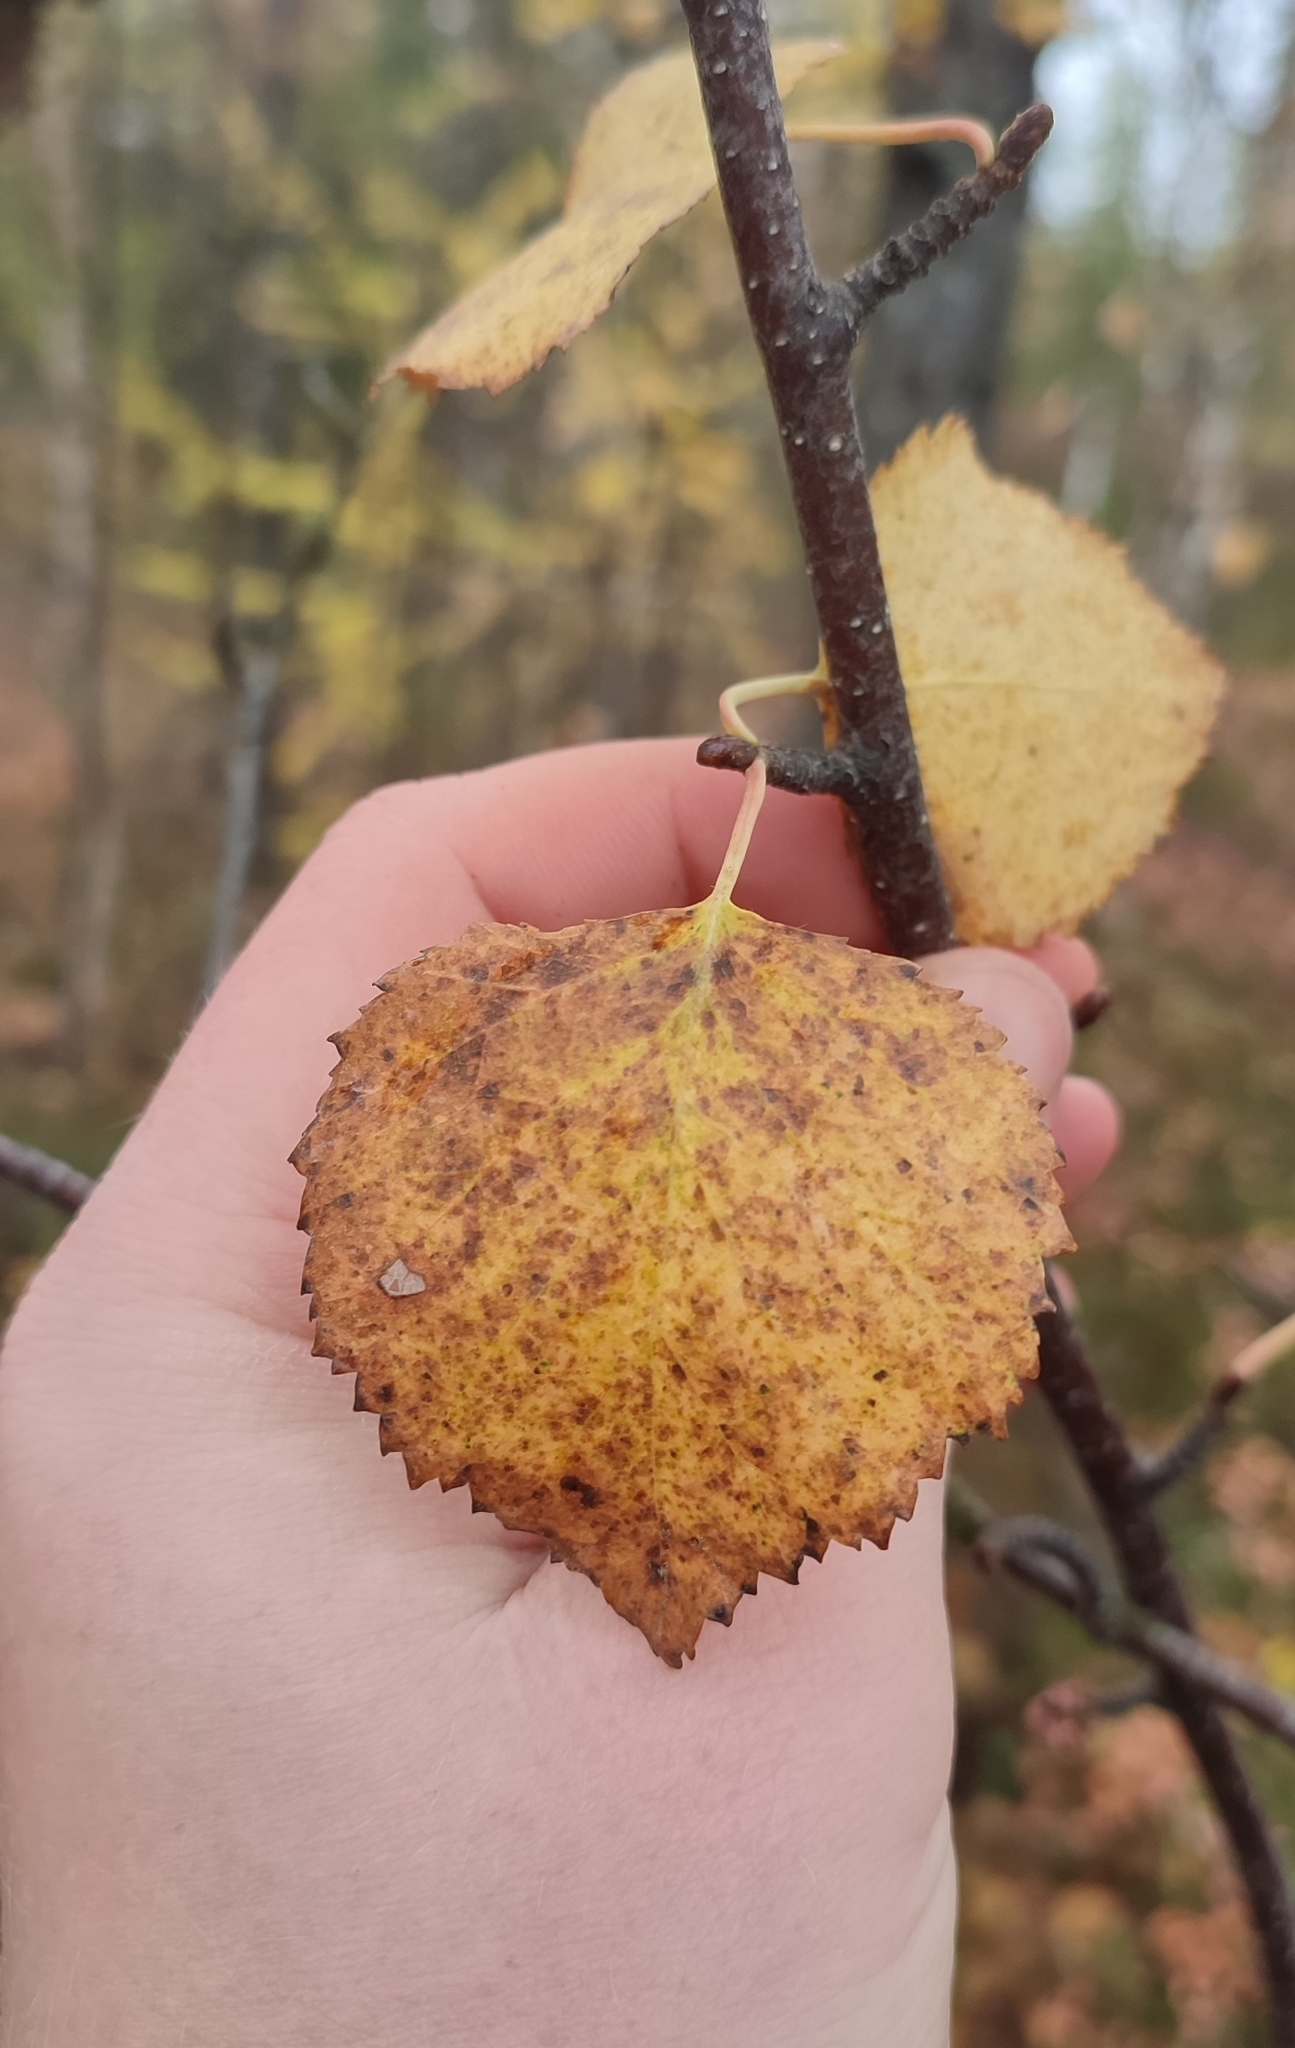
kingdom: Plantae
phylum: Tracheophyta
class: Magnoliopsida
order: Fagales
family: Betulaceae
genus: Betula
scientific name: Betula pubescens
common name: Downy birch
